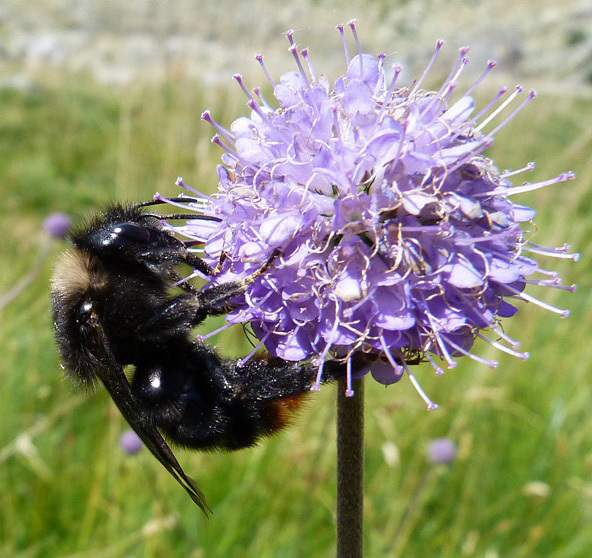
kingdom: Animalia
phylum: Arthropoda
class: Insecta
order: Hymenoptera
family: Apidae
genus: Bombus
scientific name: Bombus rupestris
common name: Hill cuckoo-bee
